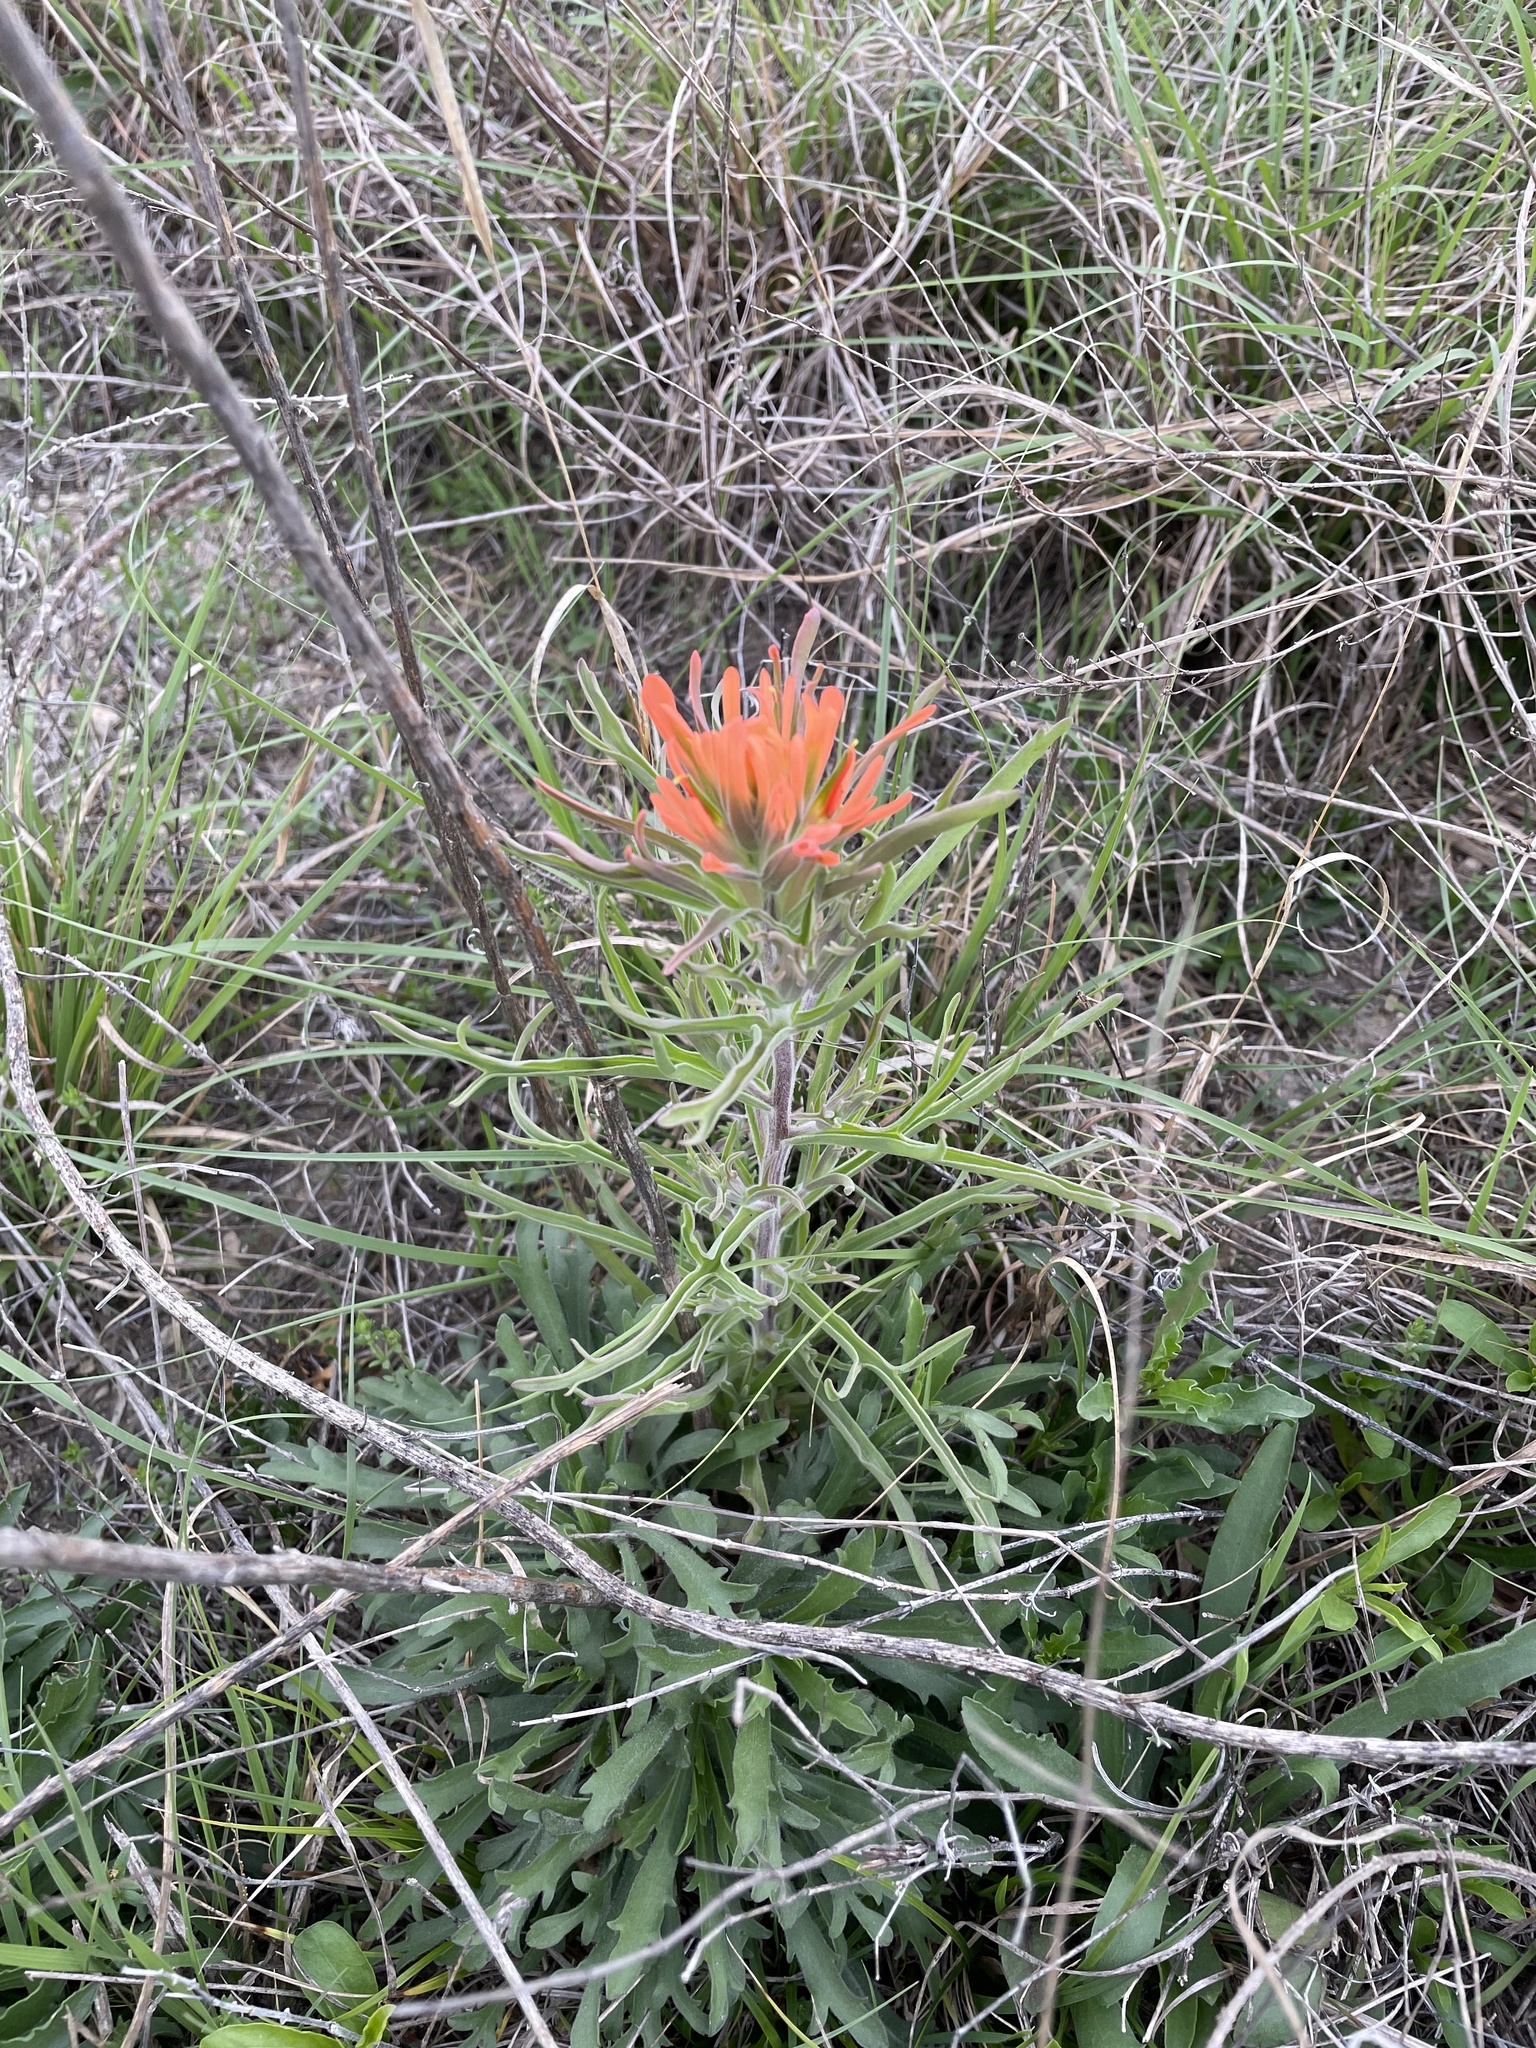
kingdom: Plantae
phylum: Tracheophyta
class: Magnoliopsida
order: Lamiales
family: Orobanchaceae
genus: Castilleja
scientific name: Castilleja lindheimeri
